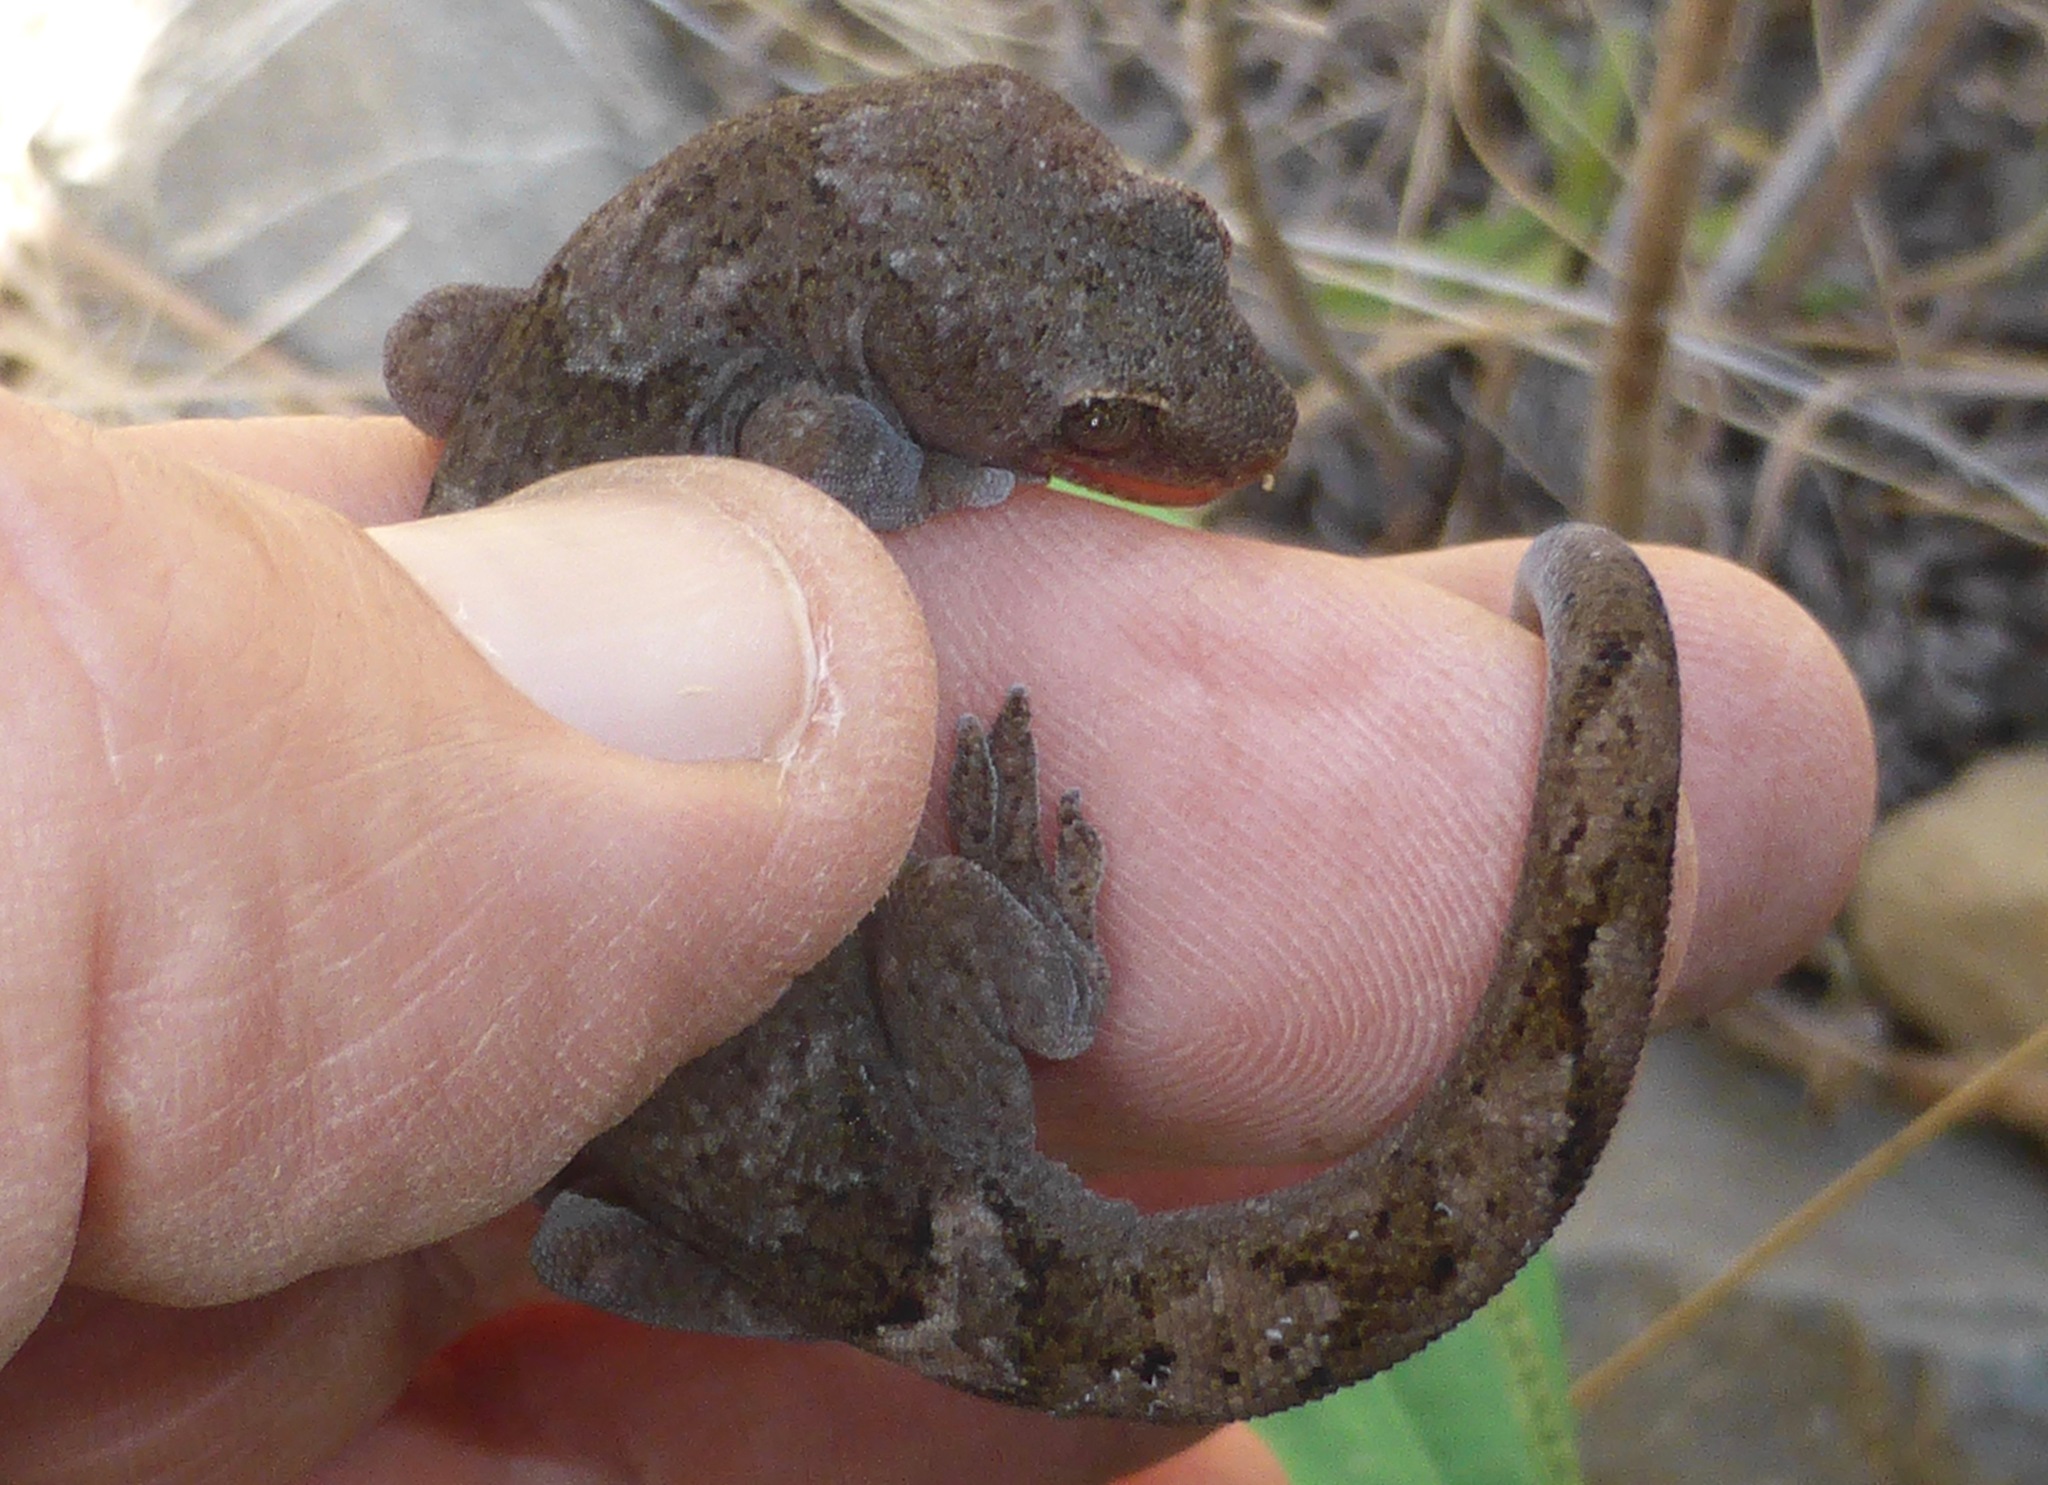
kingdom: Animalia
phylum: Chordata
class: Squamata
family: Diplodactylidae
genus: Woodworthia
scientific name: Woodworthia
